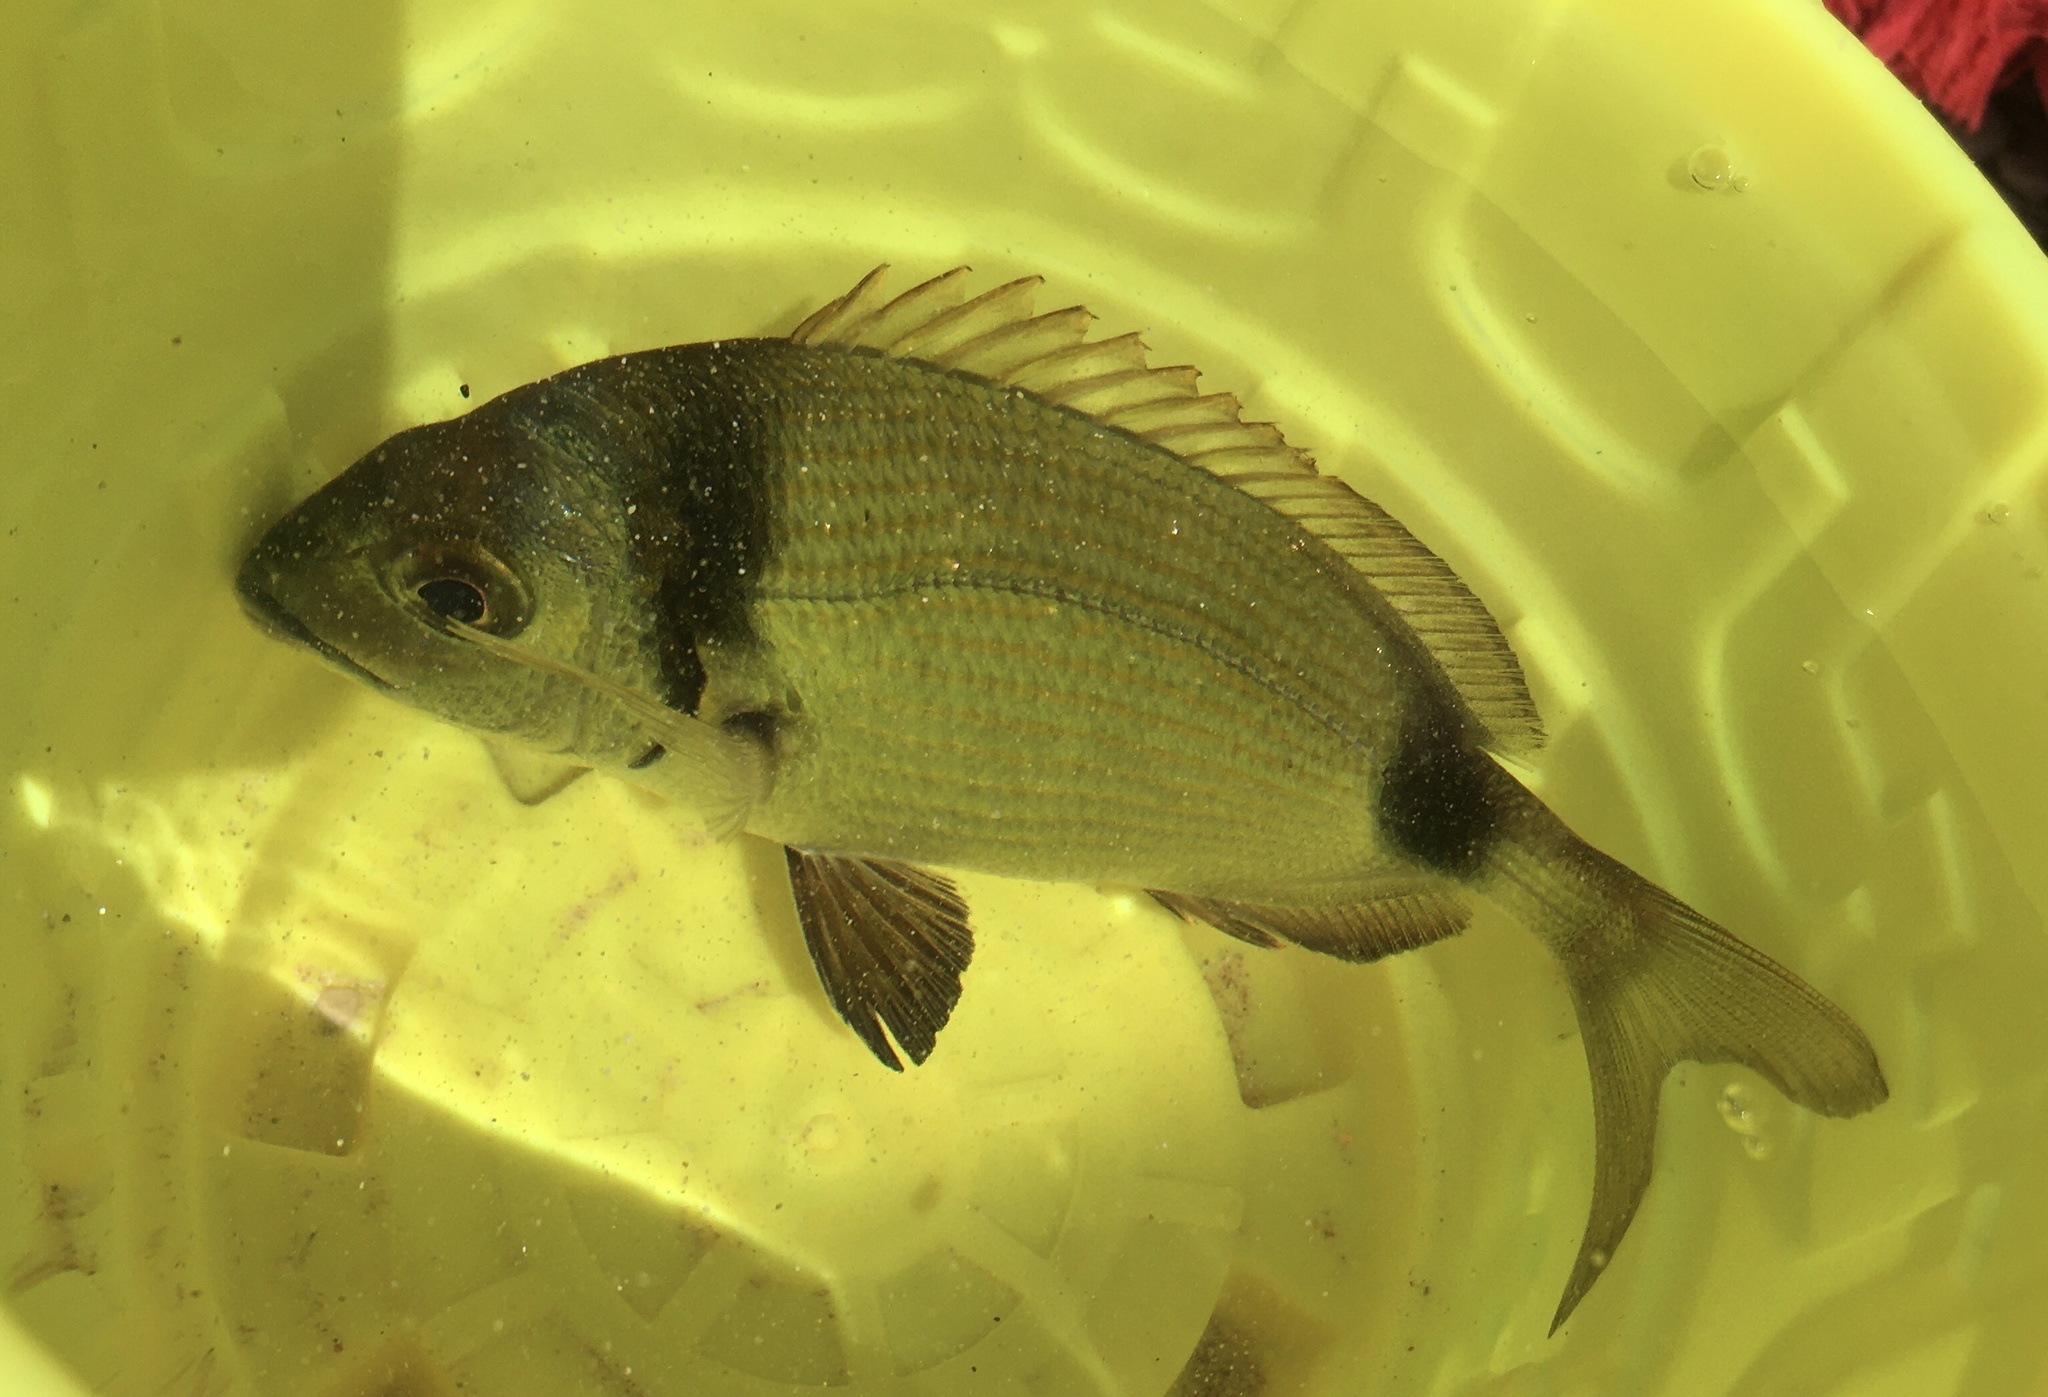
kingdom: Animalia
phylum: Chordata
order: Perciformes
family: Sparidae
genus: Diplodus
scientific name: Diplodus vulgaris
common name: Common two-banded seabream
